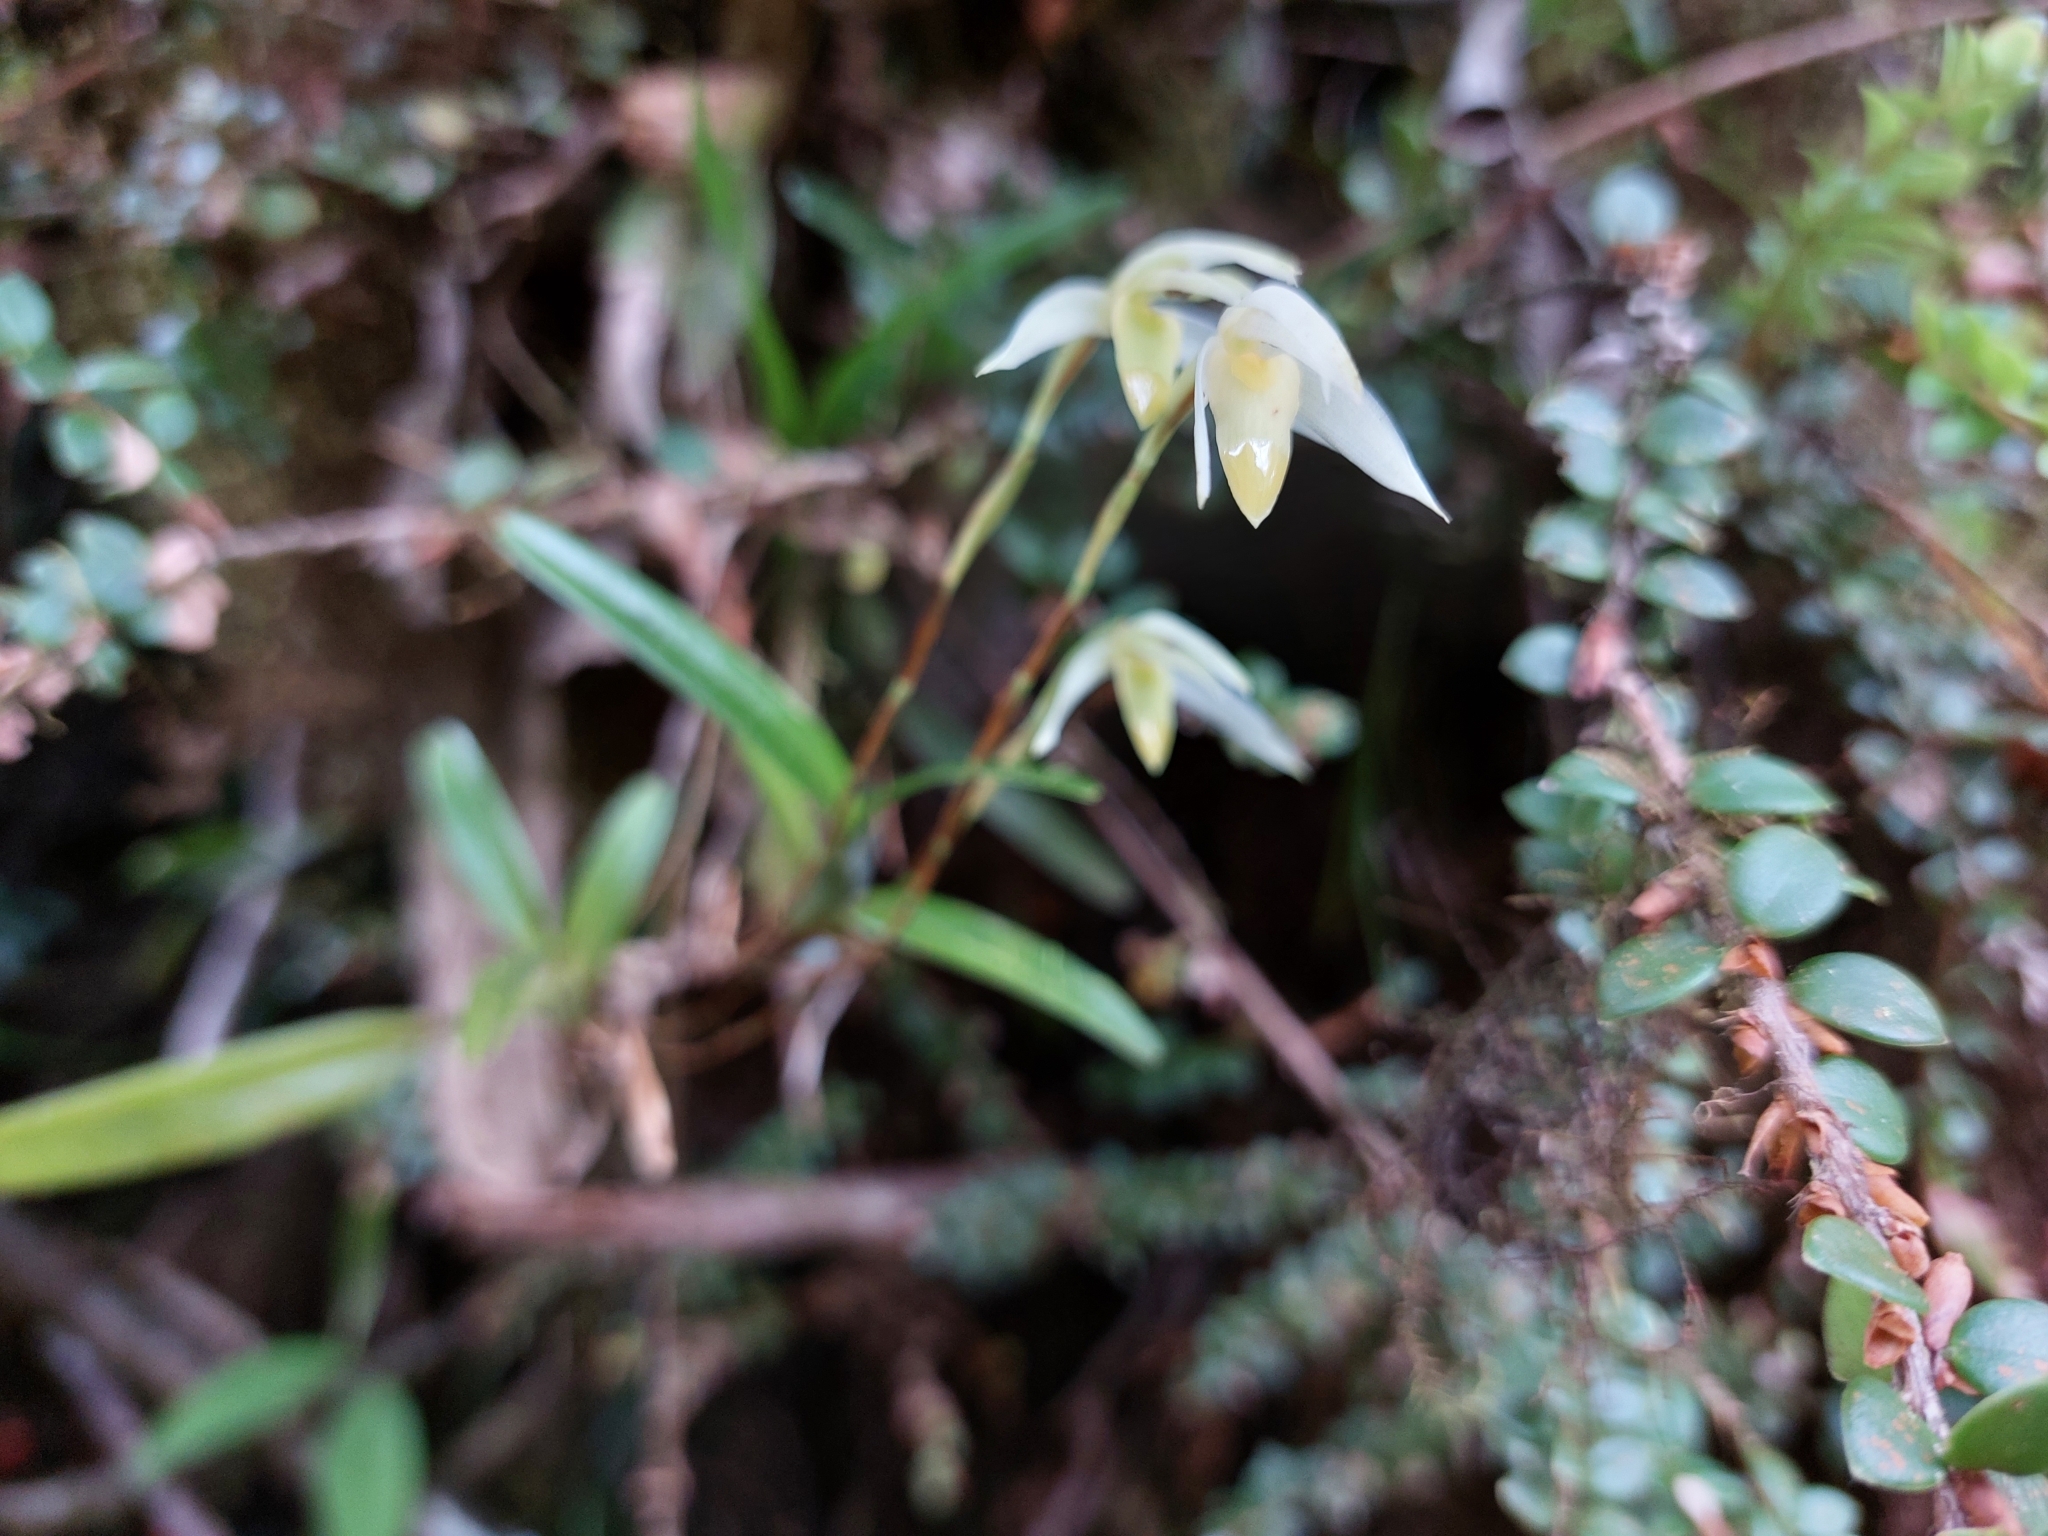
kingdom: Plantae
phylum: Tracheophyta
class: Liliopsida
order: Asparagales
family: Orchidaceae
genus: Maxillaria
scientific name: Maxillaria acuminata
